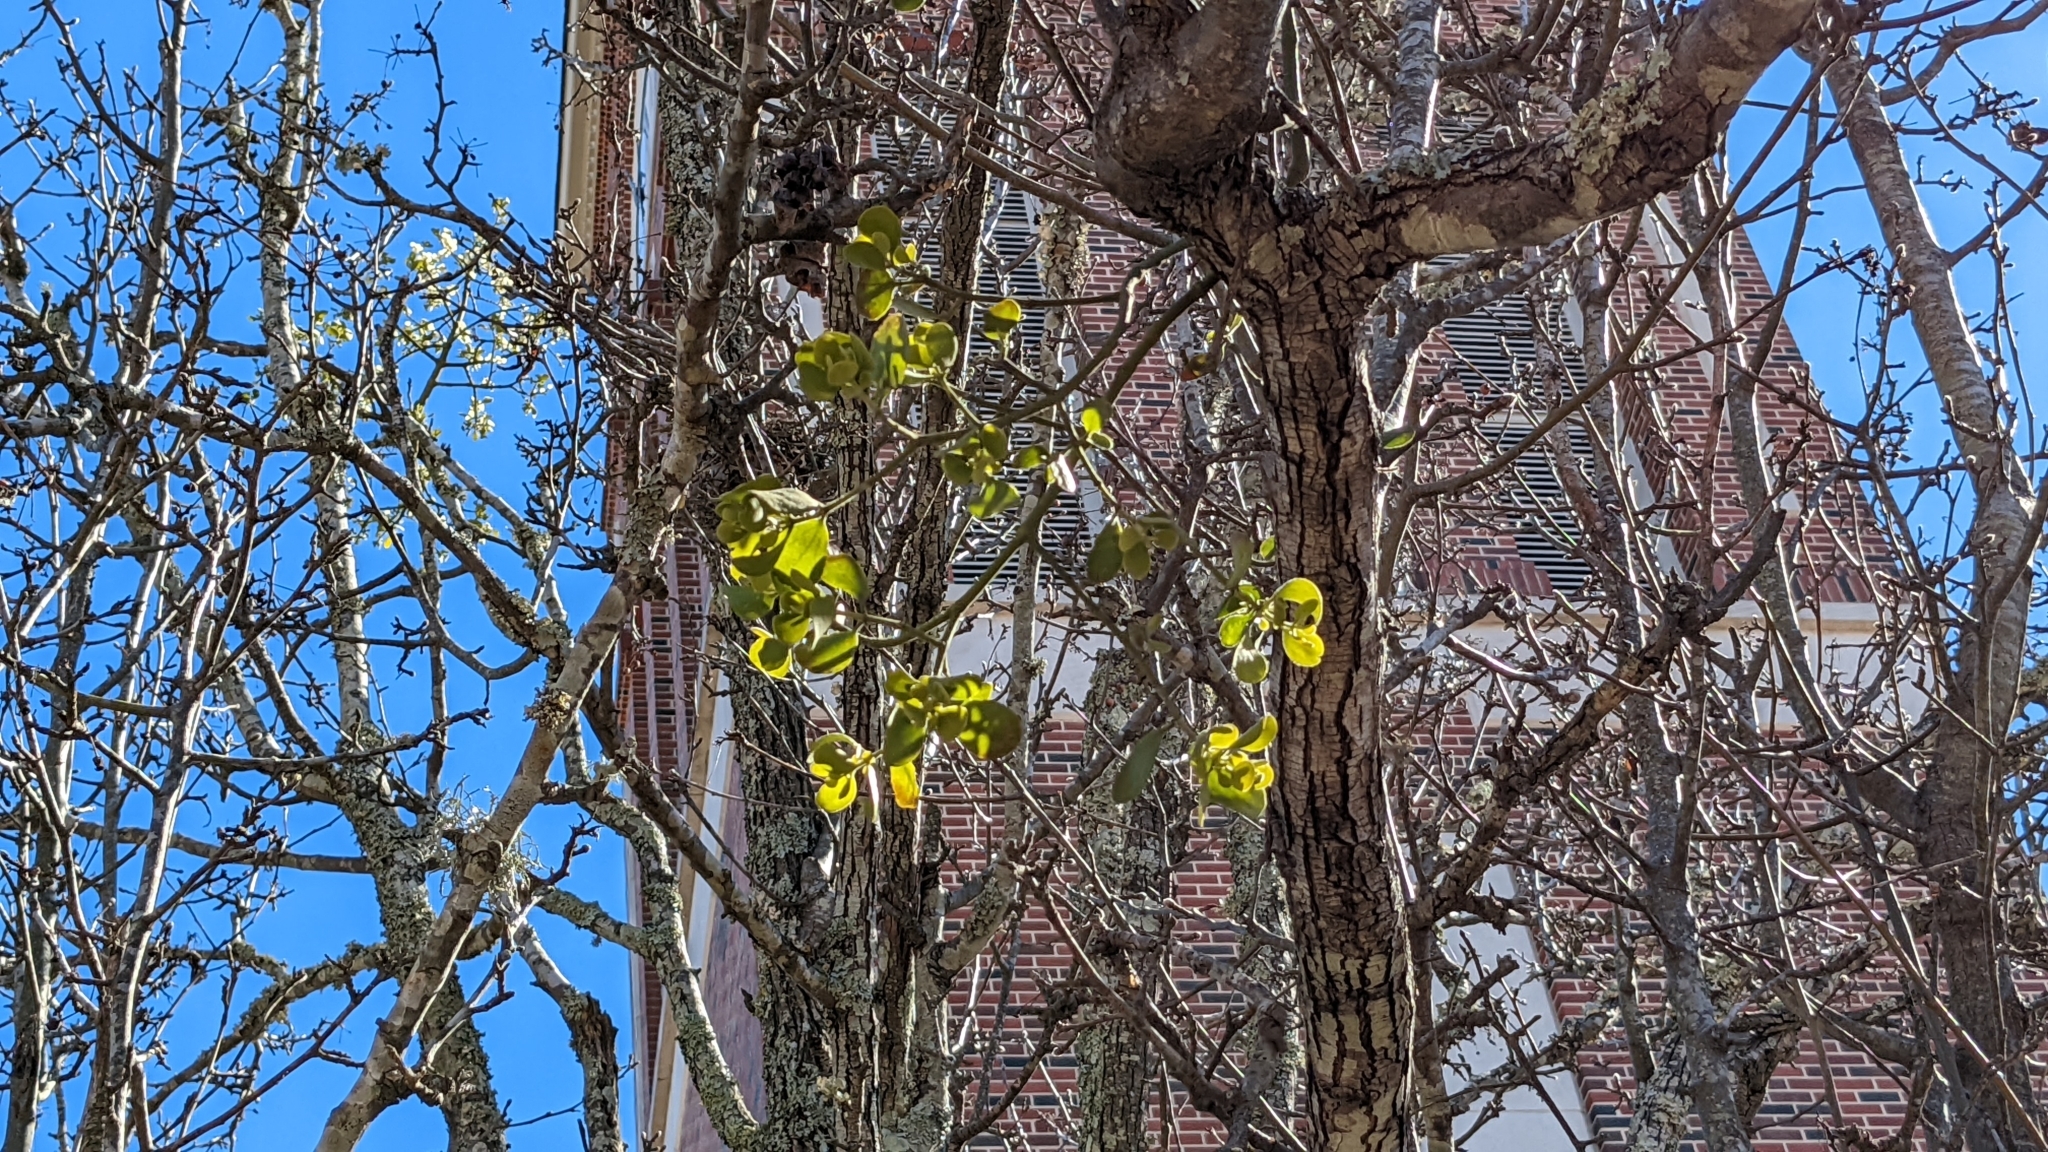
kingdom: Plantae
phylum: Tracheophyta
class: Magnoliopsida
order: Santalales
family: Viscaceae
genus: Phoradendron
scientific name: Phoradendron leucarpum
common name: Pacific mistletoe
